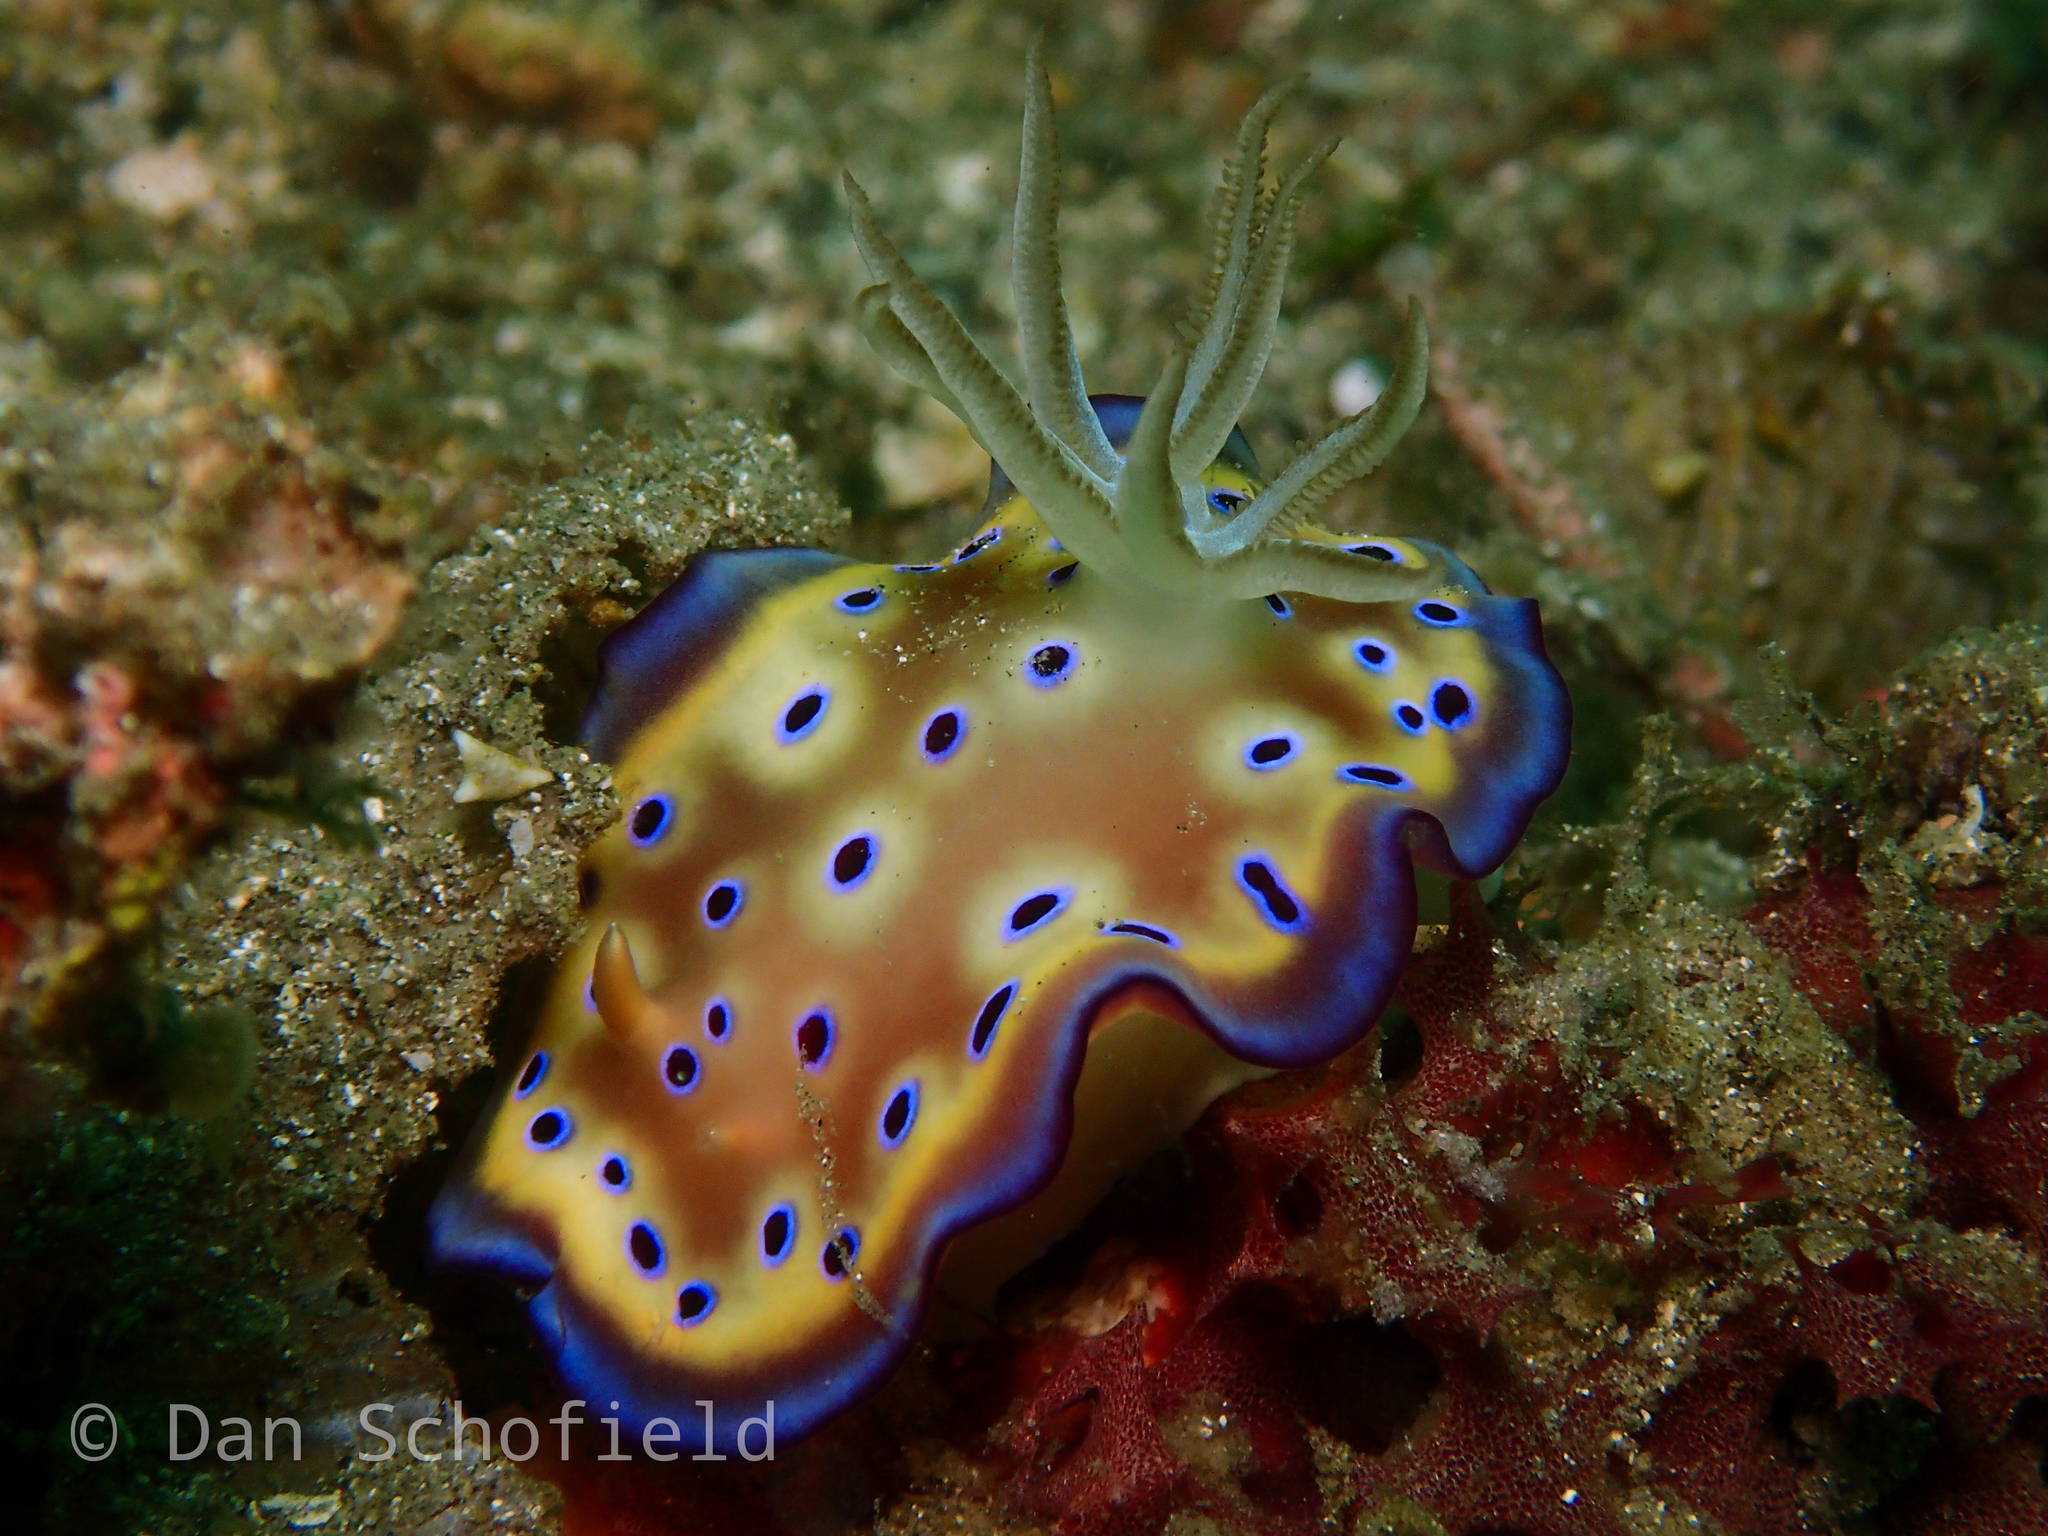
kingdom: Animalia
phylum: Mollusca
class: Gastropoda
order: Nudibranchia
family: Chromodorididae
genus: Goniobranchus
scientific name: Goniobranchus kuniei
